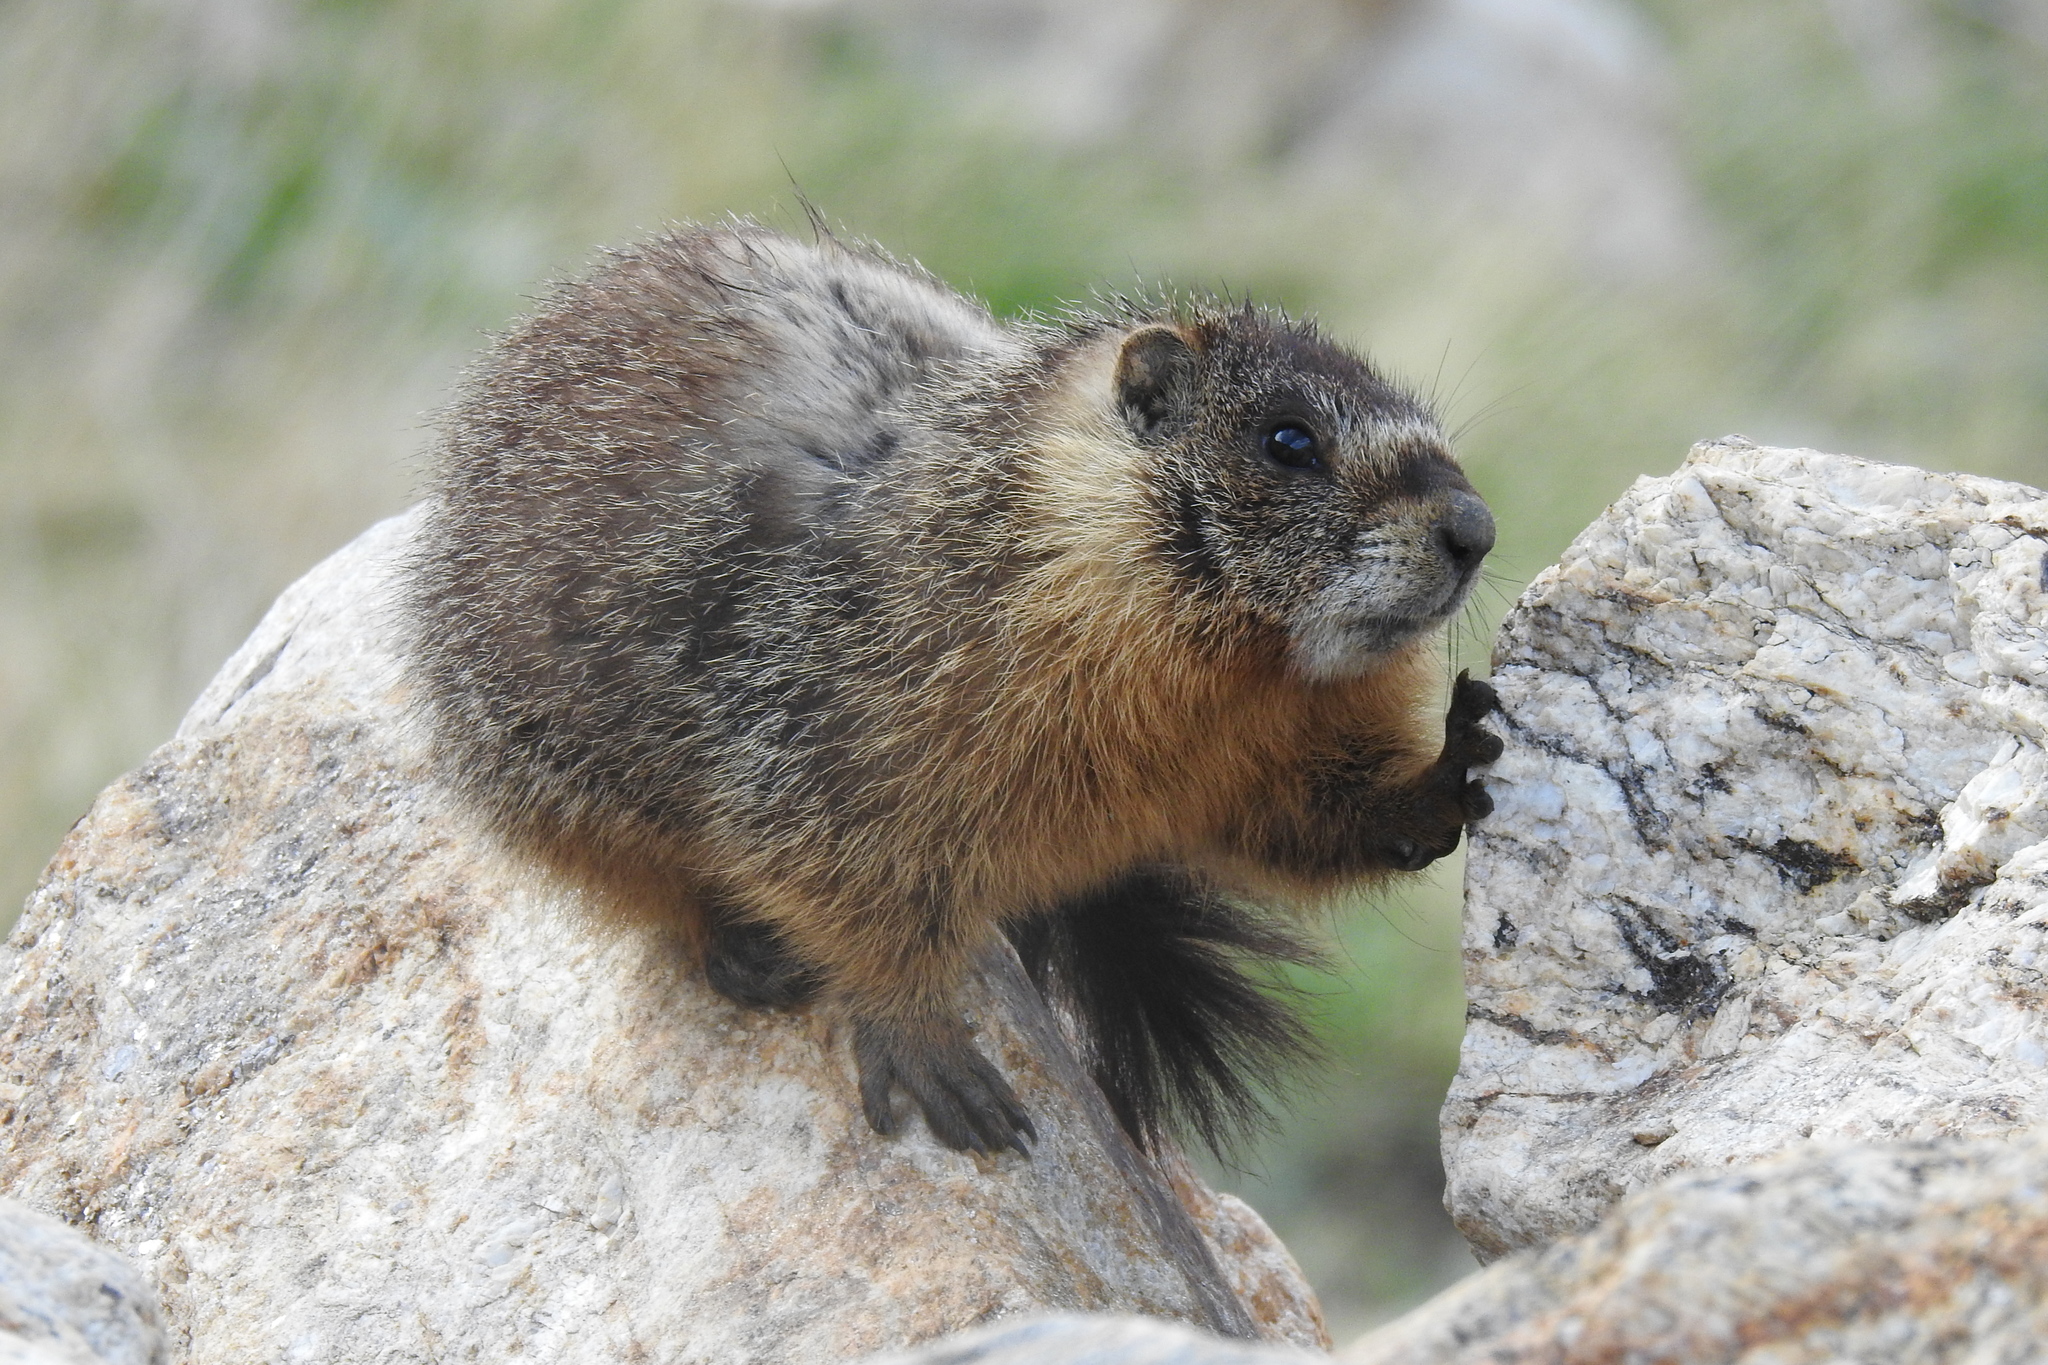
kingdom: Animalia
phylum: Chordata
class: Mammalia
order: Rodentia
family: Sciuridae
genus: Marmota
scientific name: Marmota flaviventris
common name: Yellow-bellied marmot
